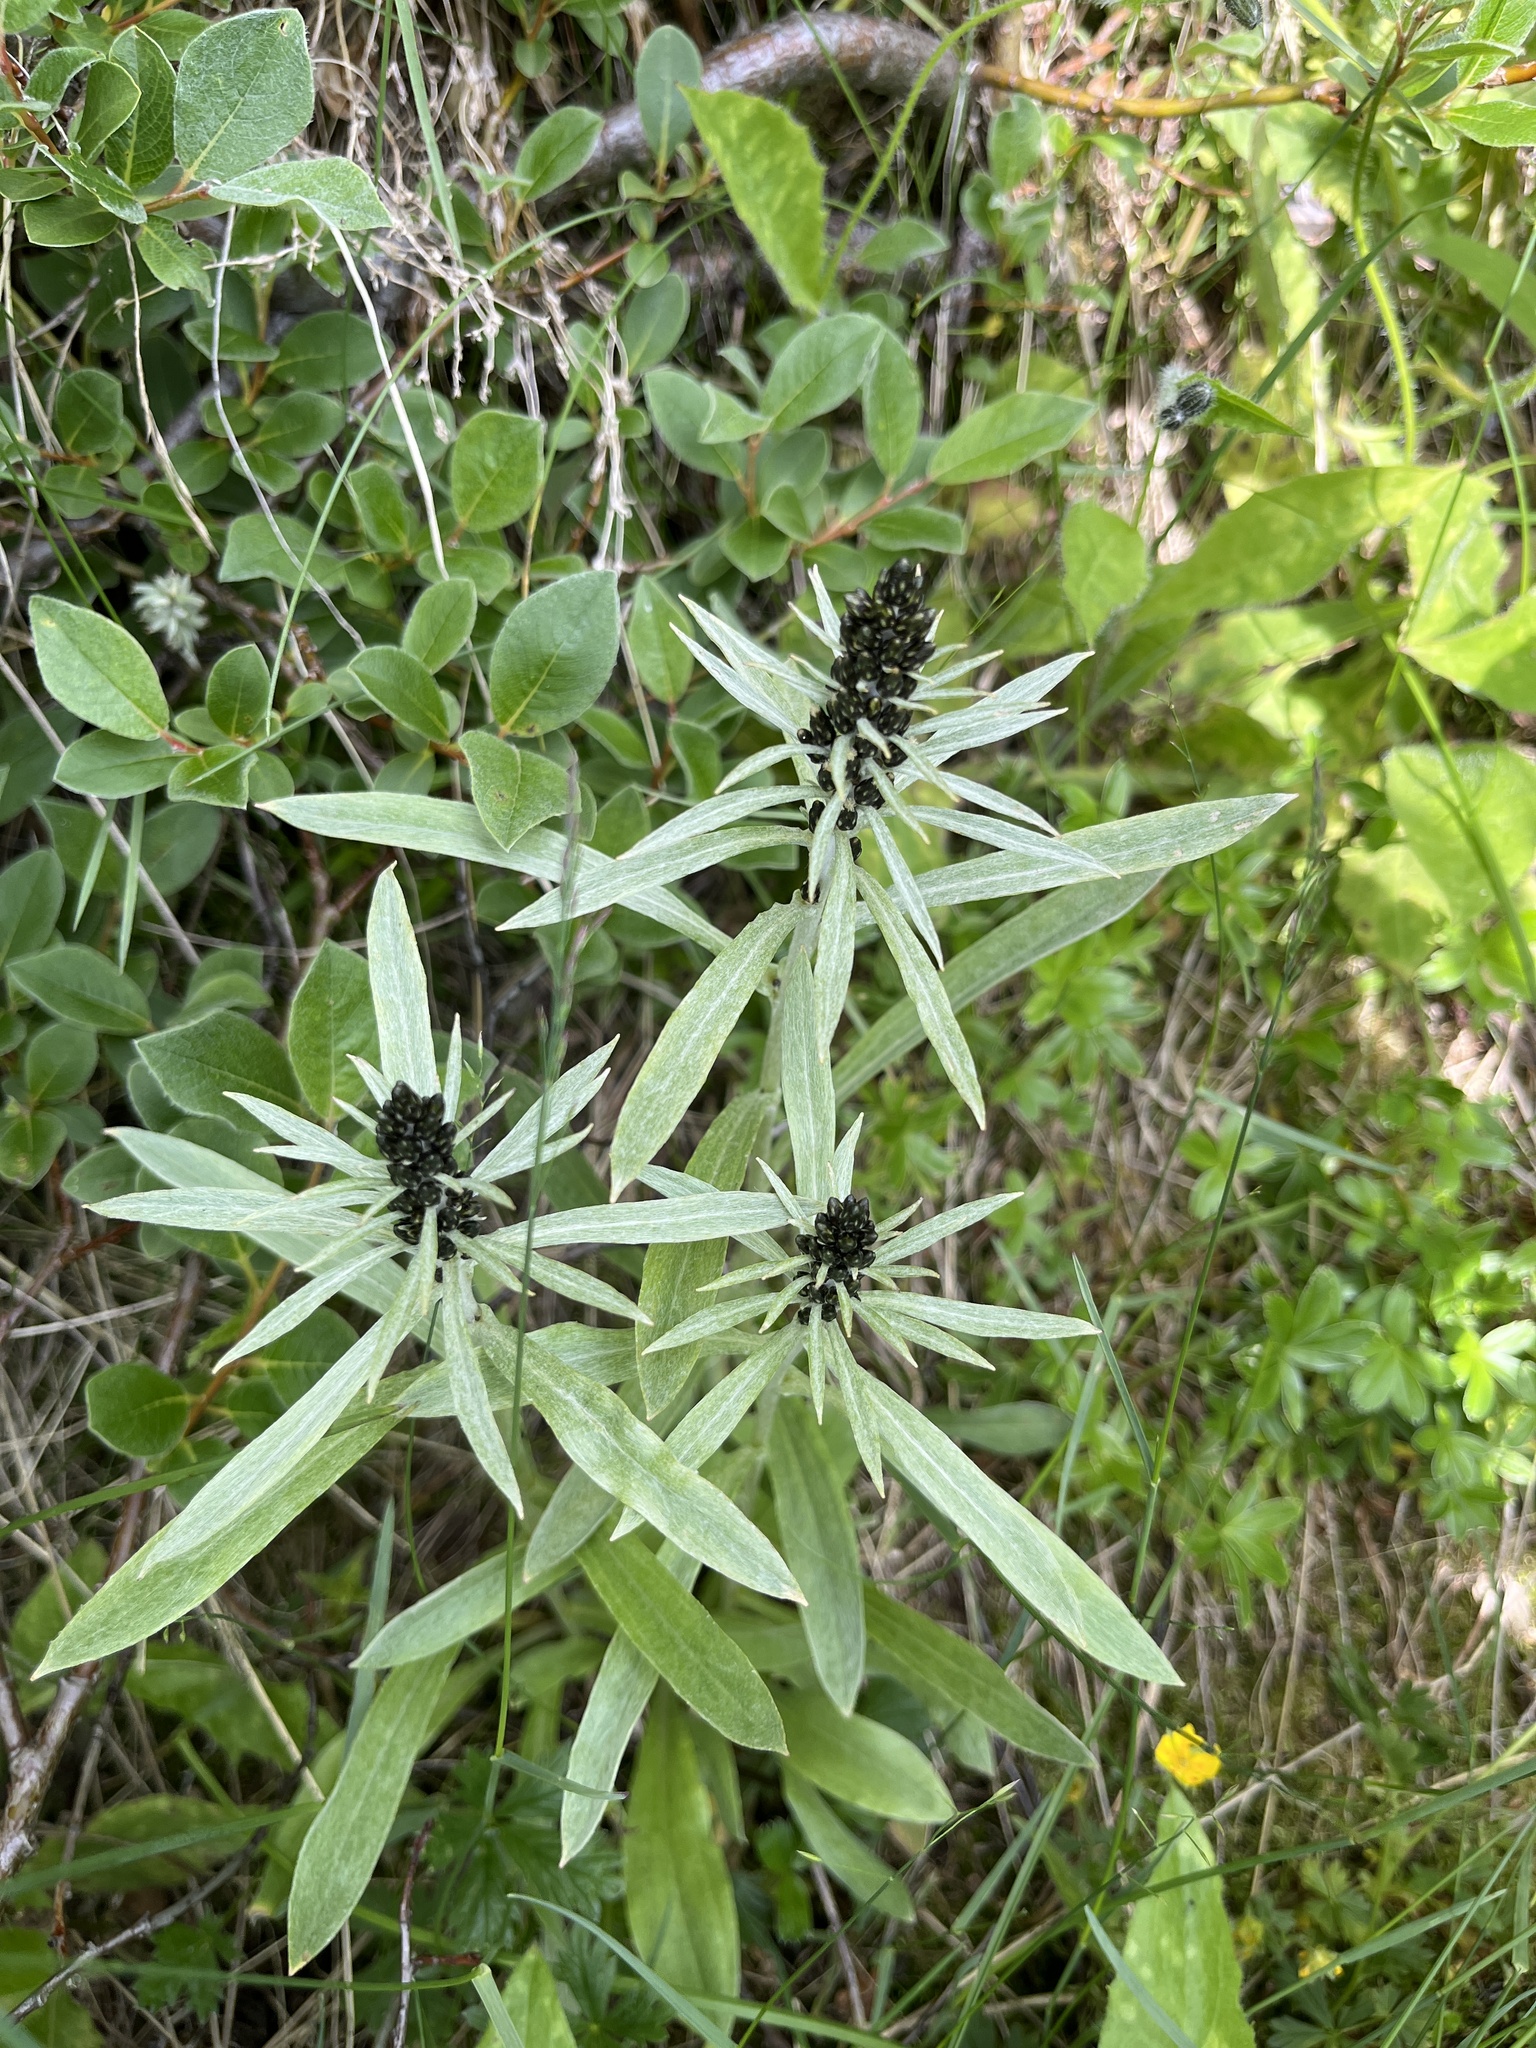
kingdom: Plantae
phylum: Tracheophyta
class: Magnoliopsida
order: Asterales
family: Asteraceae
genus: Omalotheca
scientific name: Omalotheca norvegica
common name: Norwegian arctic-cudweed
